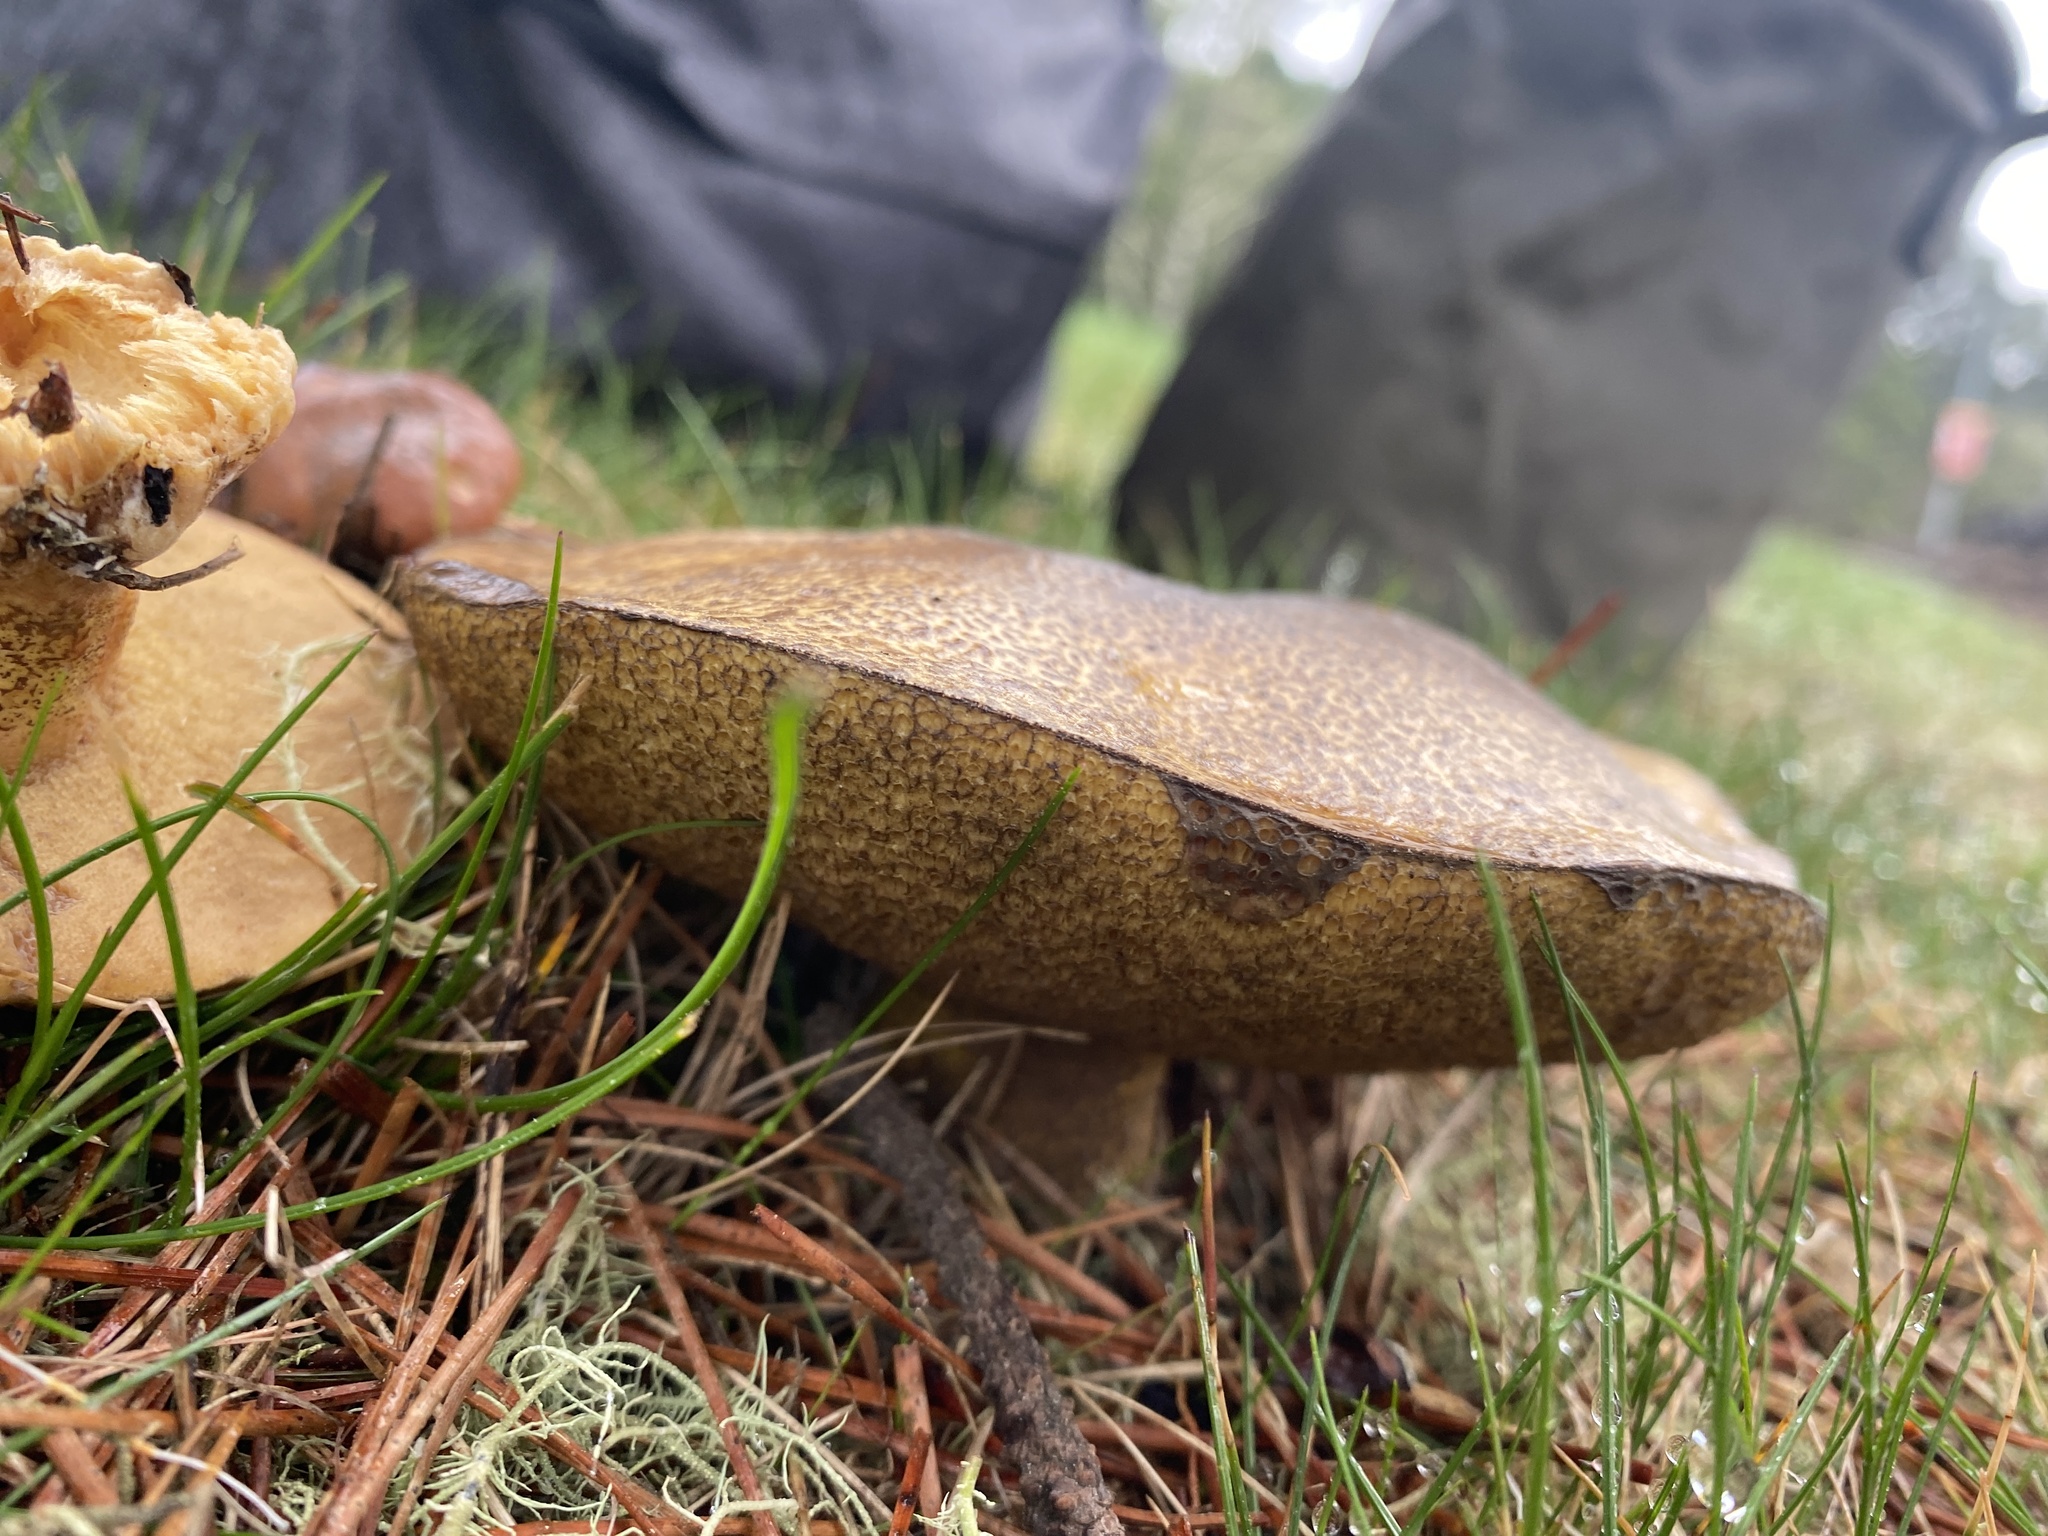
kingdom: Fungi
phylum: Basidiomycota
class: Agaricomycetes
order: Boletales
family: Suillaceae
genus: Suillus
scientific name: Suillus fuscotomentosus
